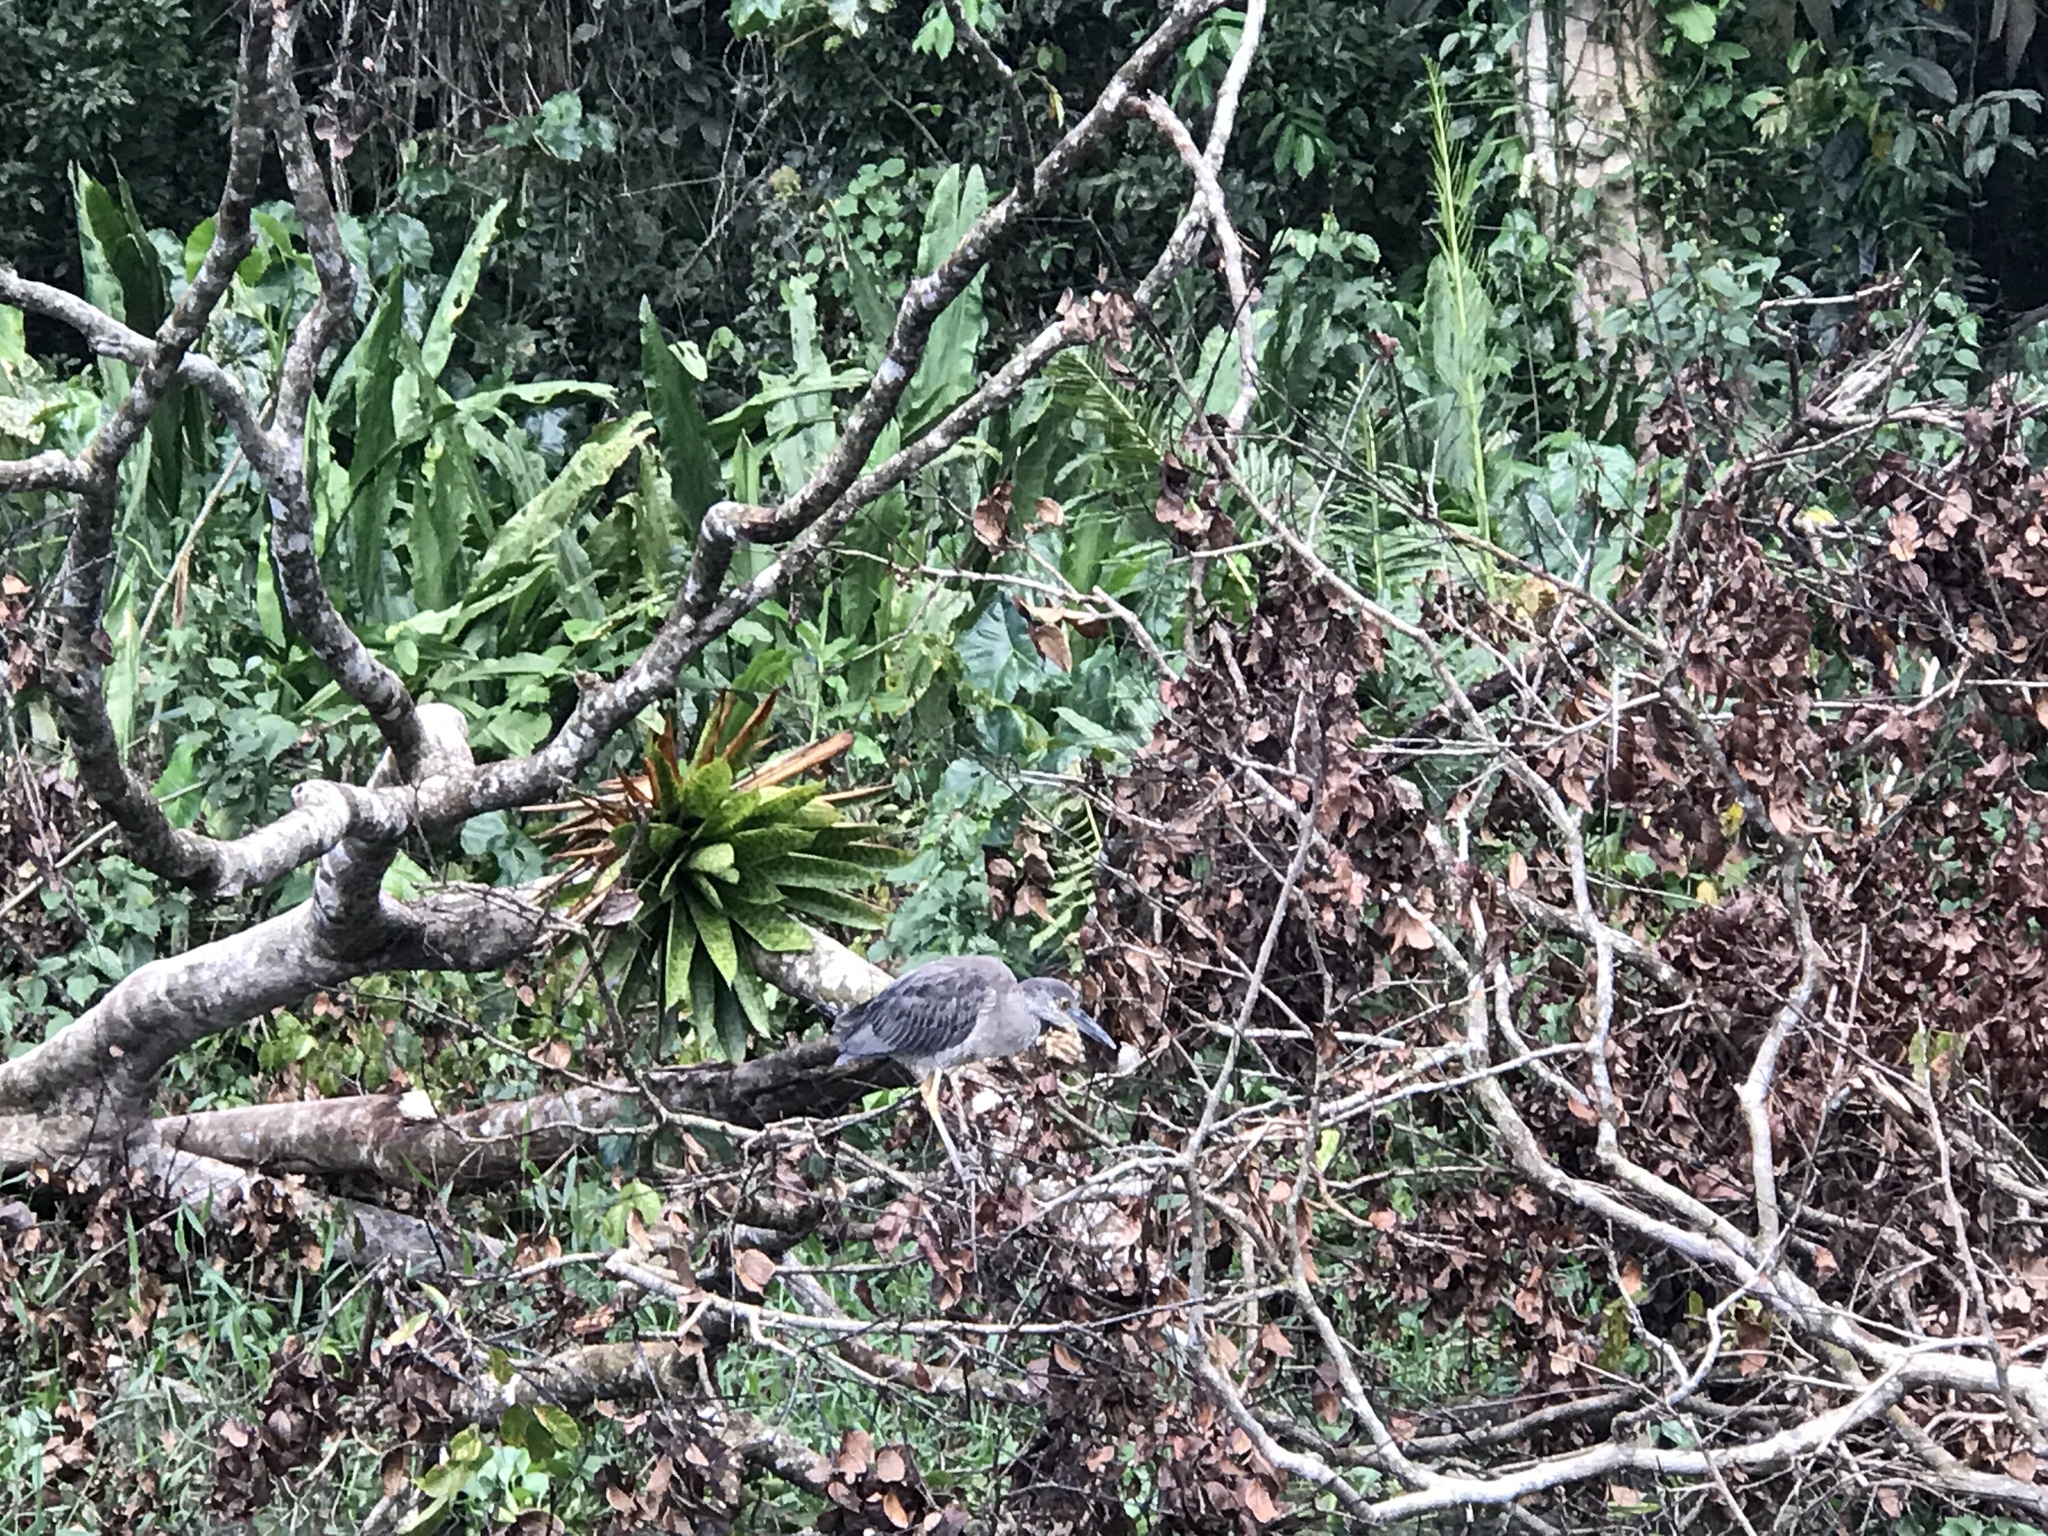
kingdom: Animalia
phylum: Chordata
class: Aves
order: Pelecaniformes
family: Ardeidae
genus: Nyctanassa
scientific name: Nyctanassa violacea
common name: Yellow-crowned night heron
